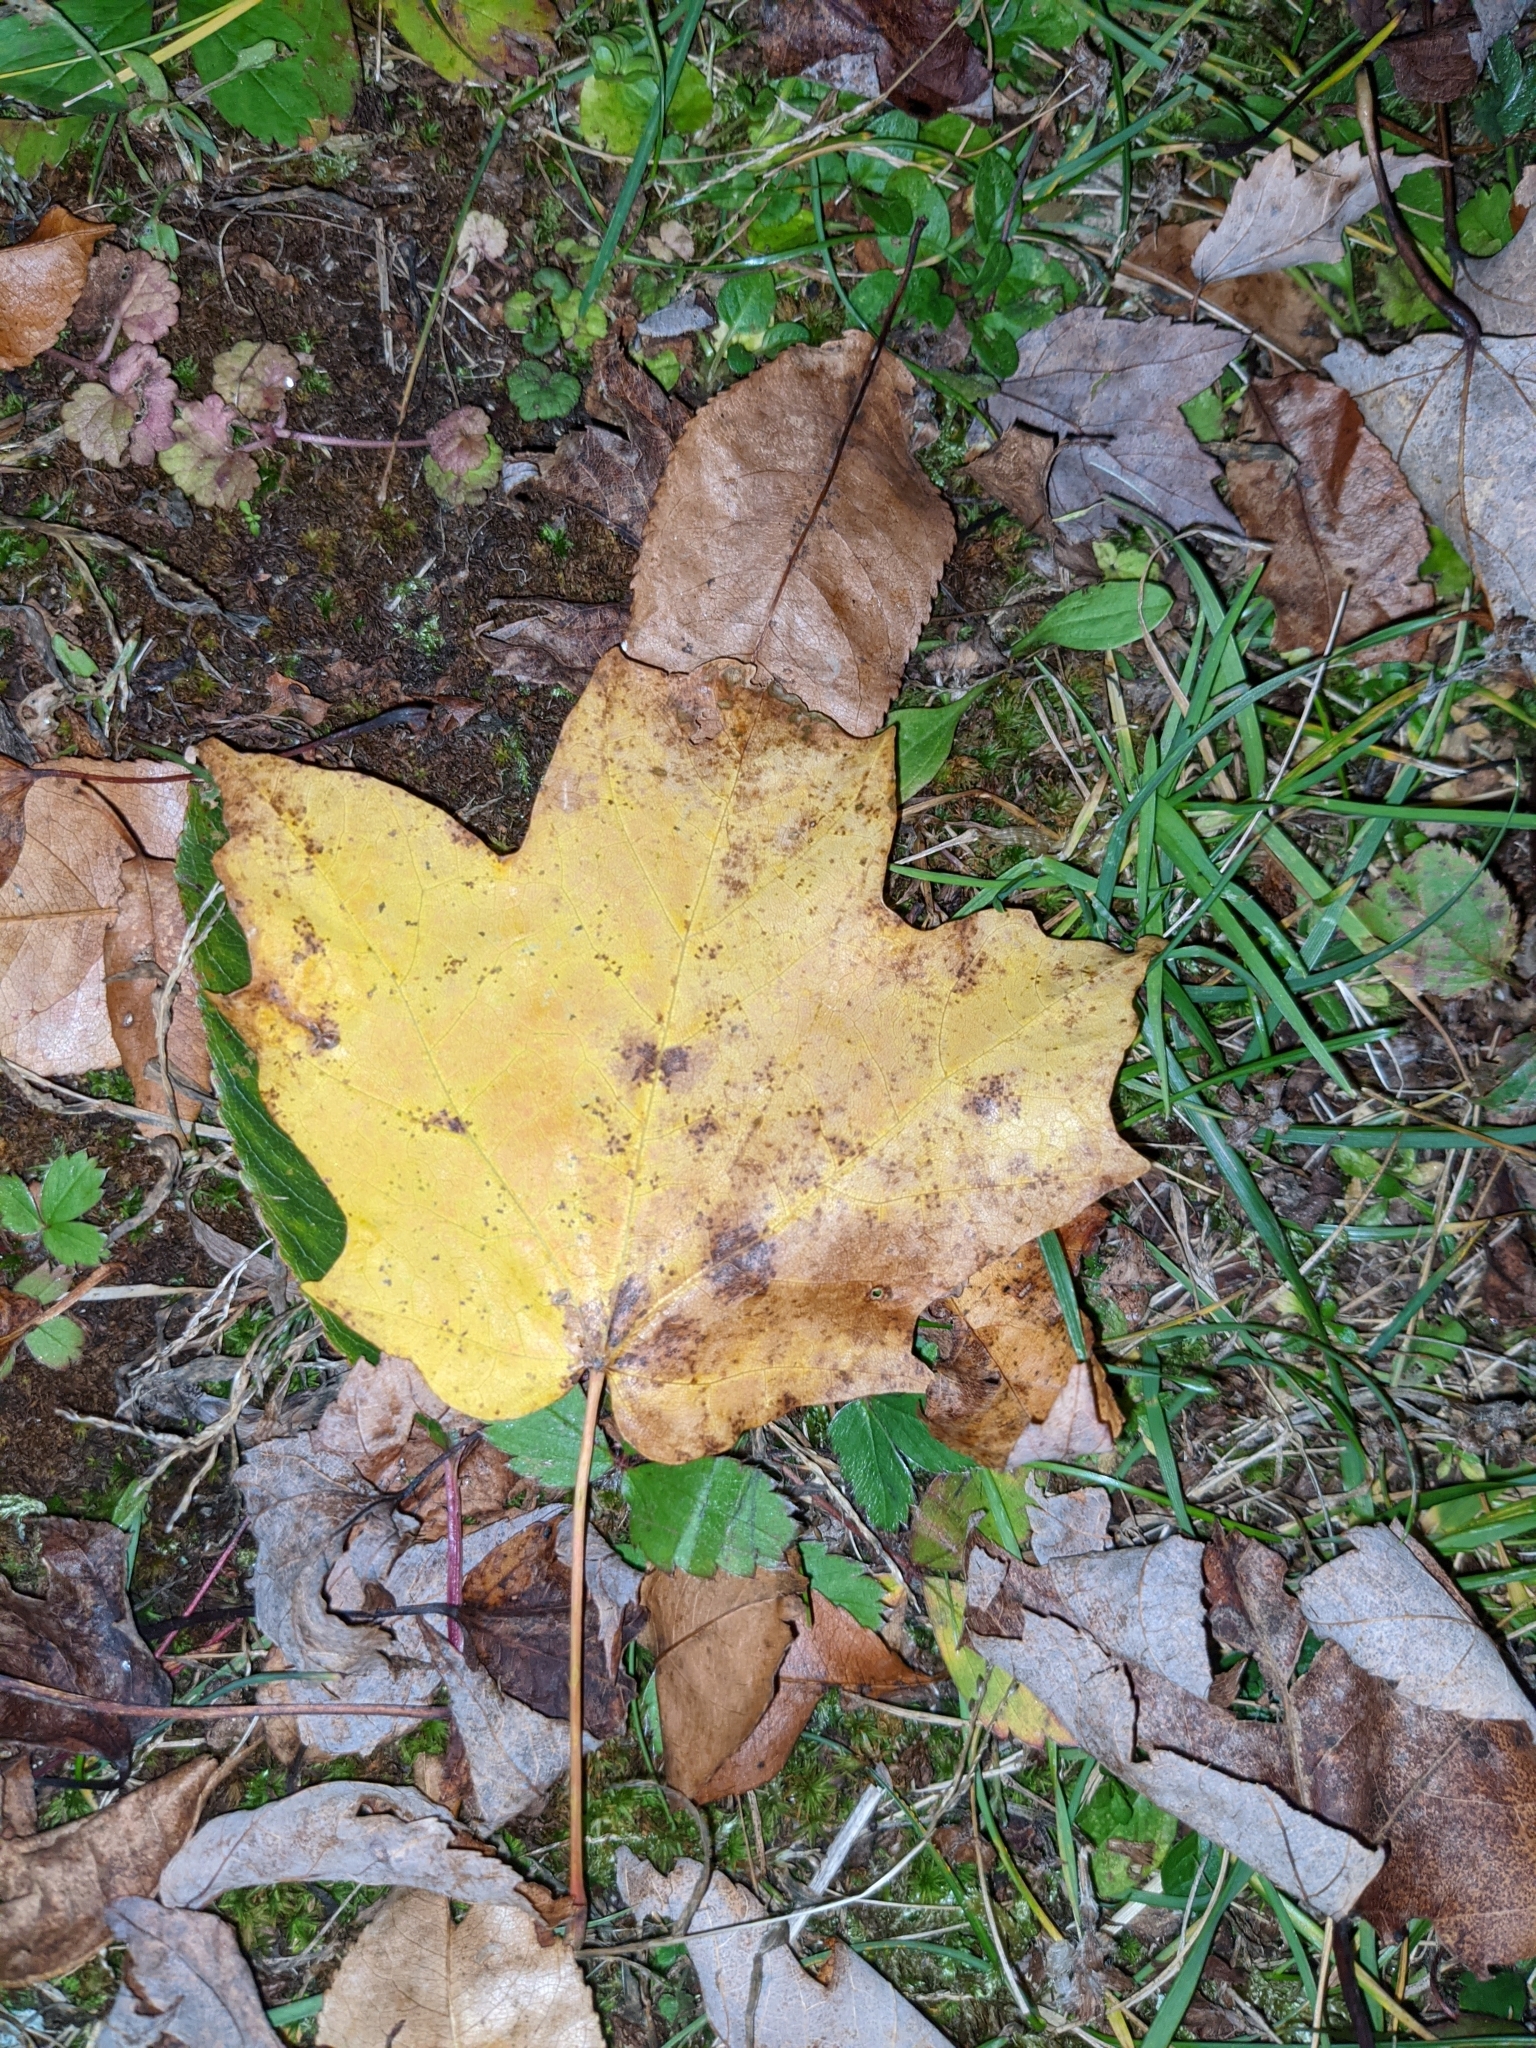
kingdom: Plantae
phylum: Tracheophyta
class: Magnoliopsida
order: Sapindales
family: Sapindaceae
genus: Acer
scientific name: Acer saccharum
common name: Sugar maple
